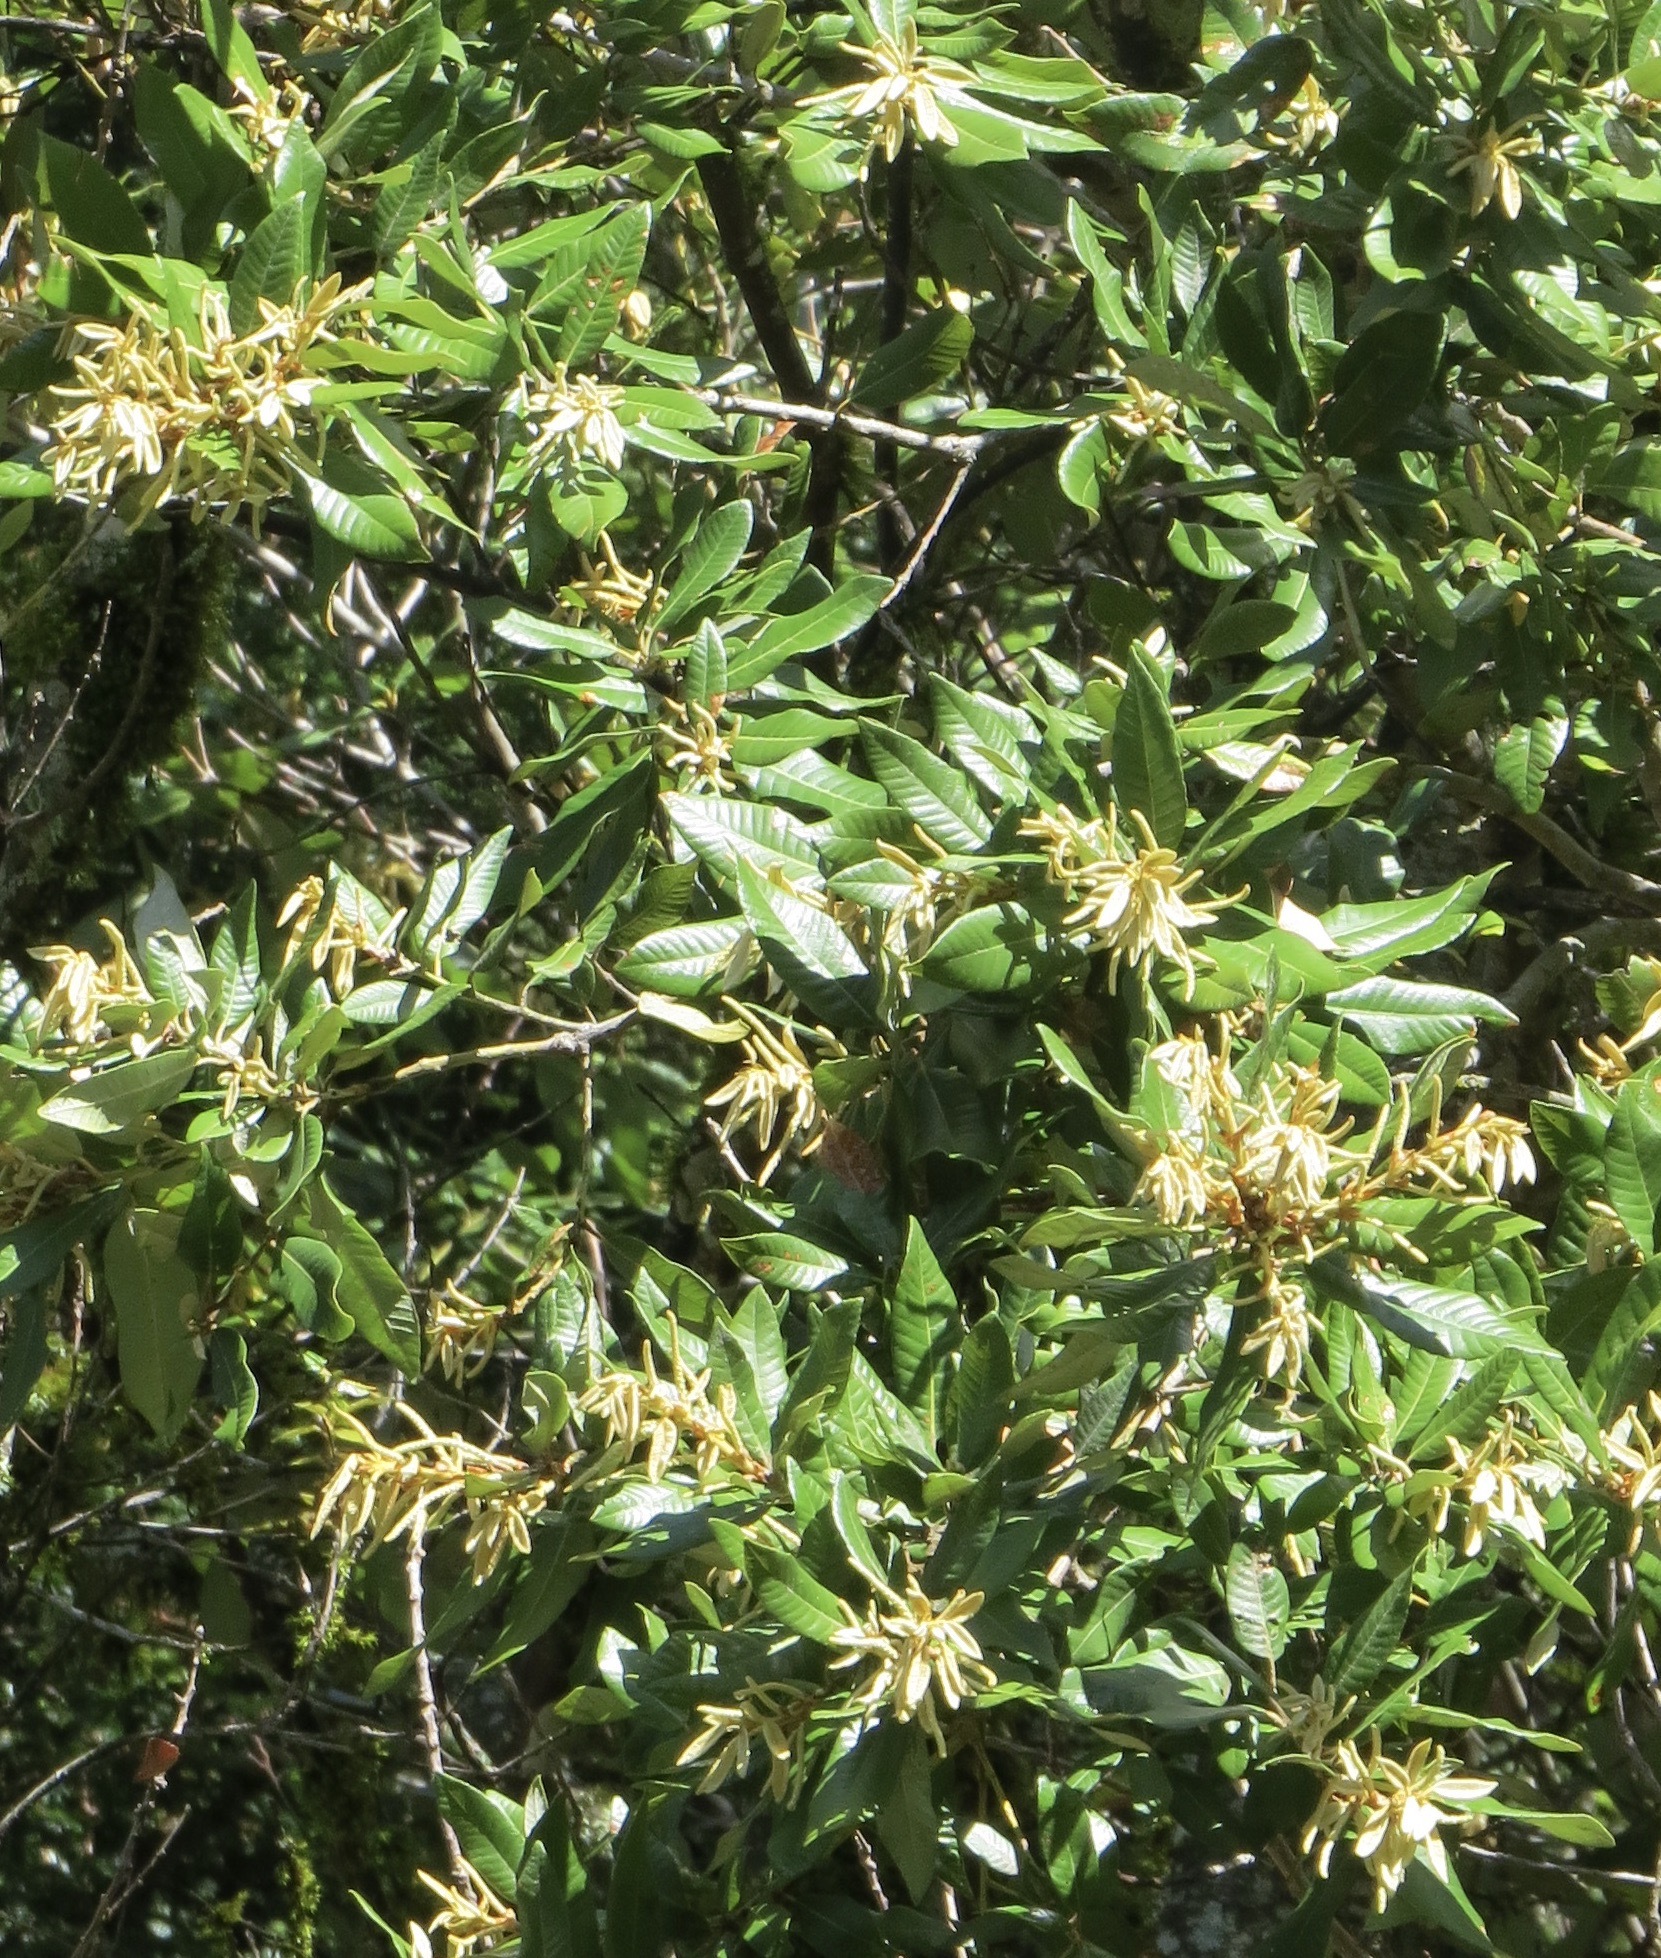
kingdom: Plantae
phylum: Tracheophyta
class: Magnoliopsida
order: Fagales
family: Fagaceae
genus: Notholithocarpus
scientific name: Notholithocarpus densiflorus
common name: Tan bark oak
